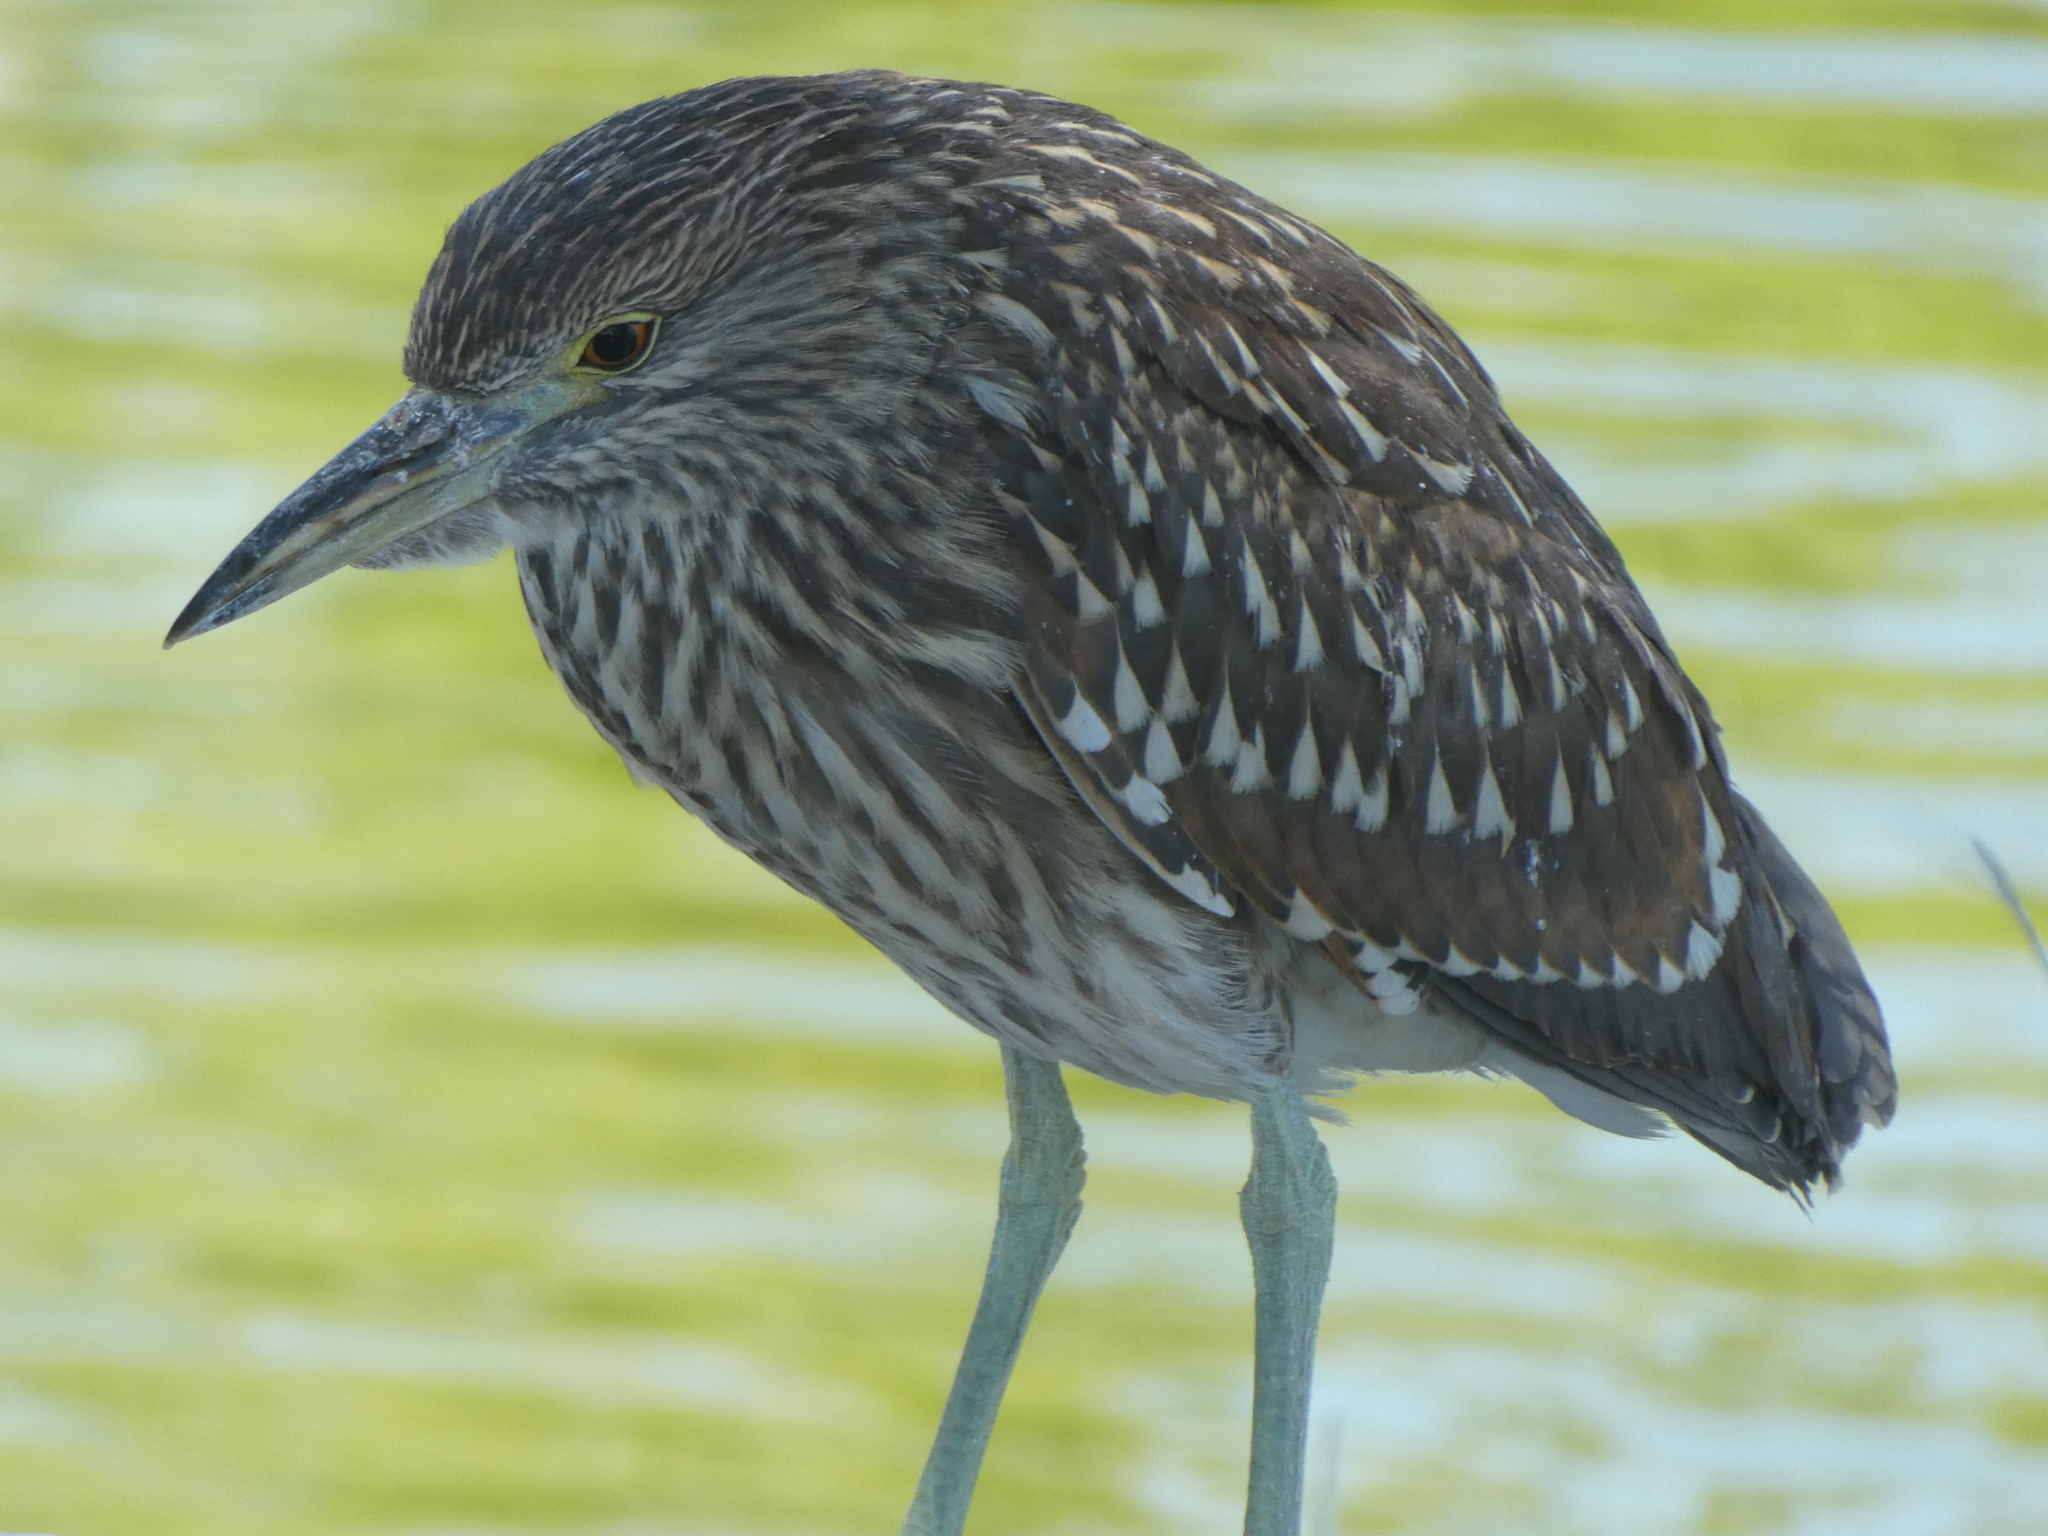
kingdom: Animalia
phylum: Chordata
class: Aves
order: Pelecaniformes
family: Ardeidae
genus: Nycticorax
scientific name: Nycticorax nycticorax
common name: Black-crowned night heron
